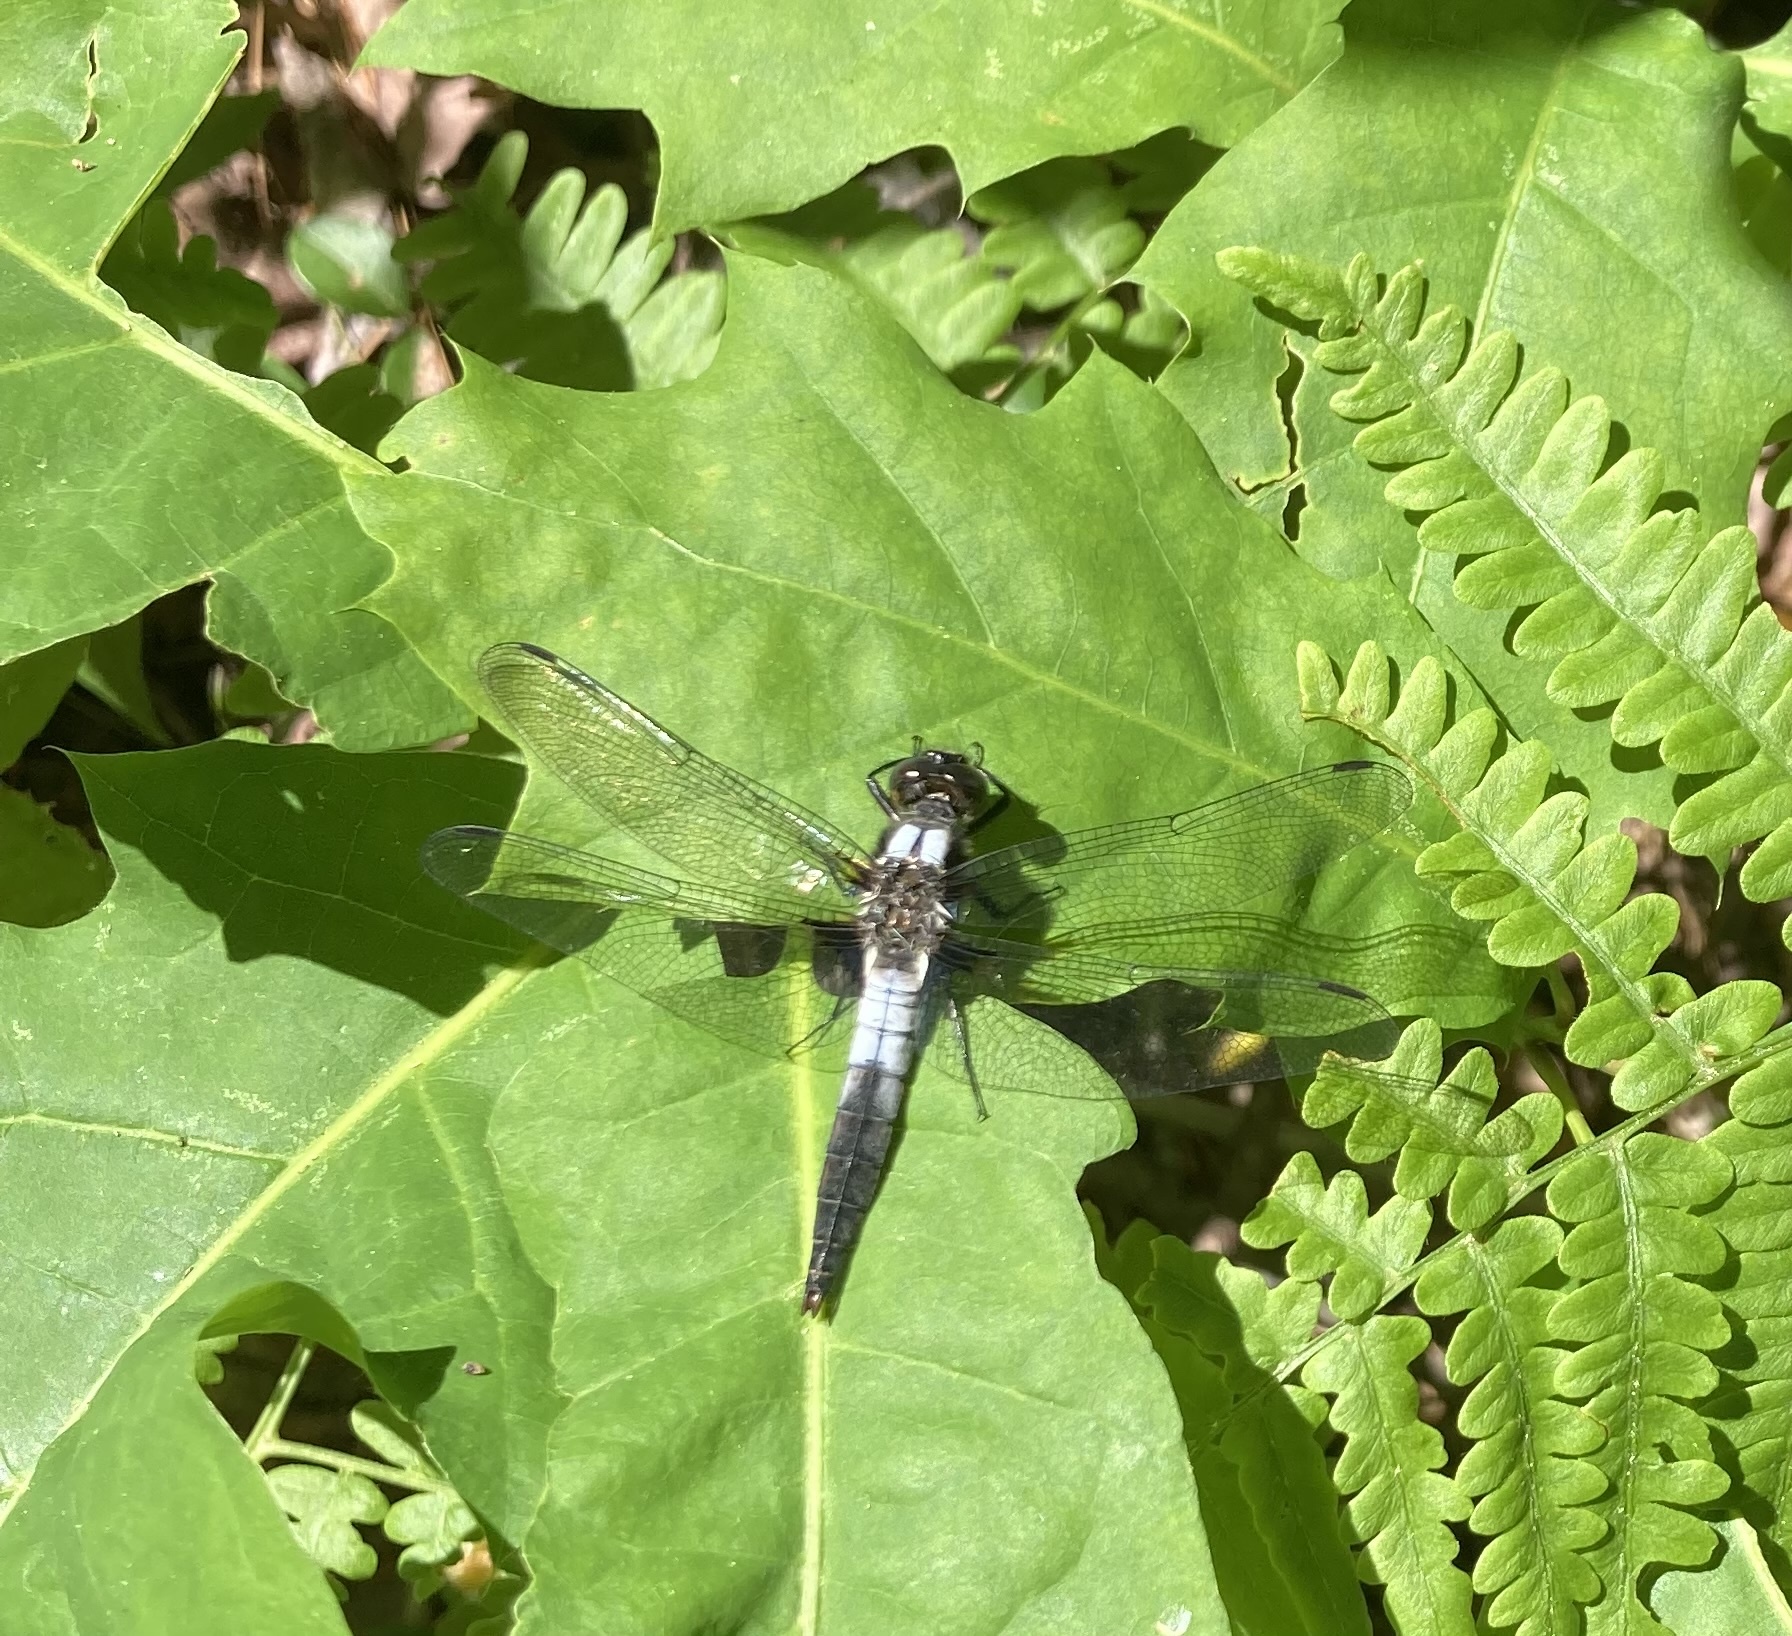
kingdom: Animalia
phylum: Arthropoda
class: Insecta
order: Odonata
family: Libellulidae
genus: Ladona
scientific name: Ladona julia
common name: Chalk-fronted corporal
